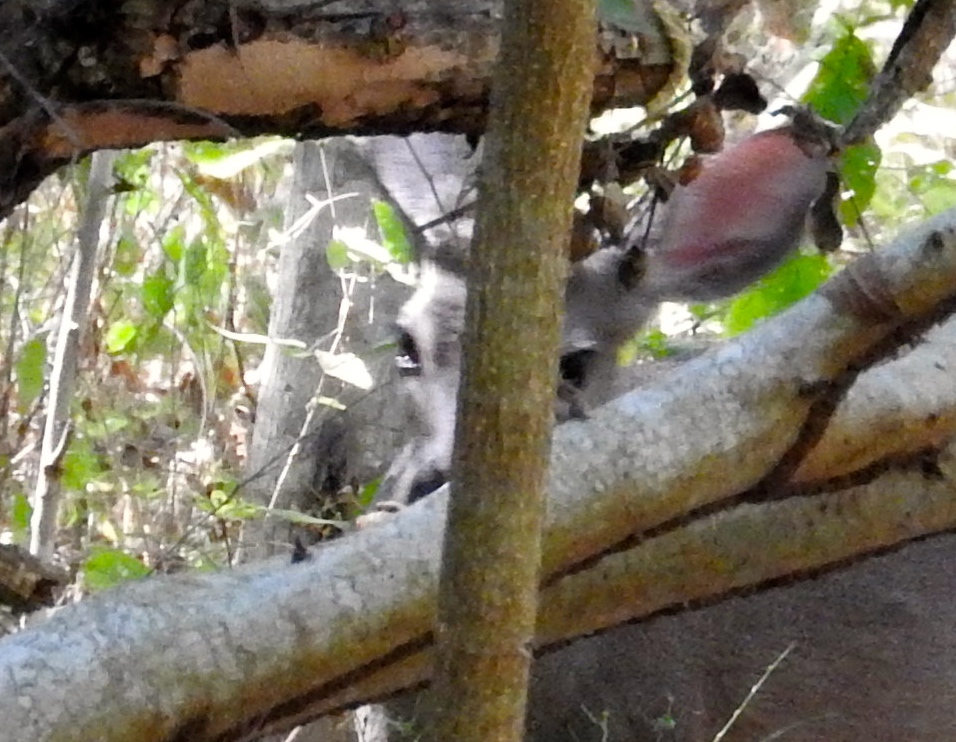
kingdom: Animalia
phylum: Chordata
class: Mammalia
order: Artiodactyla
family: Cervidae
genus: Odocoileus
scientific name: Odocoileus virginianus
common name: White-tailed deer
